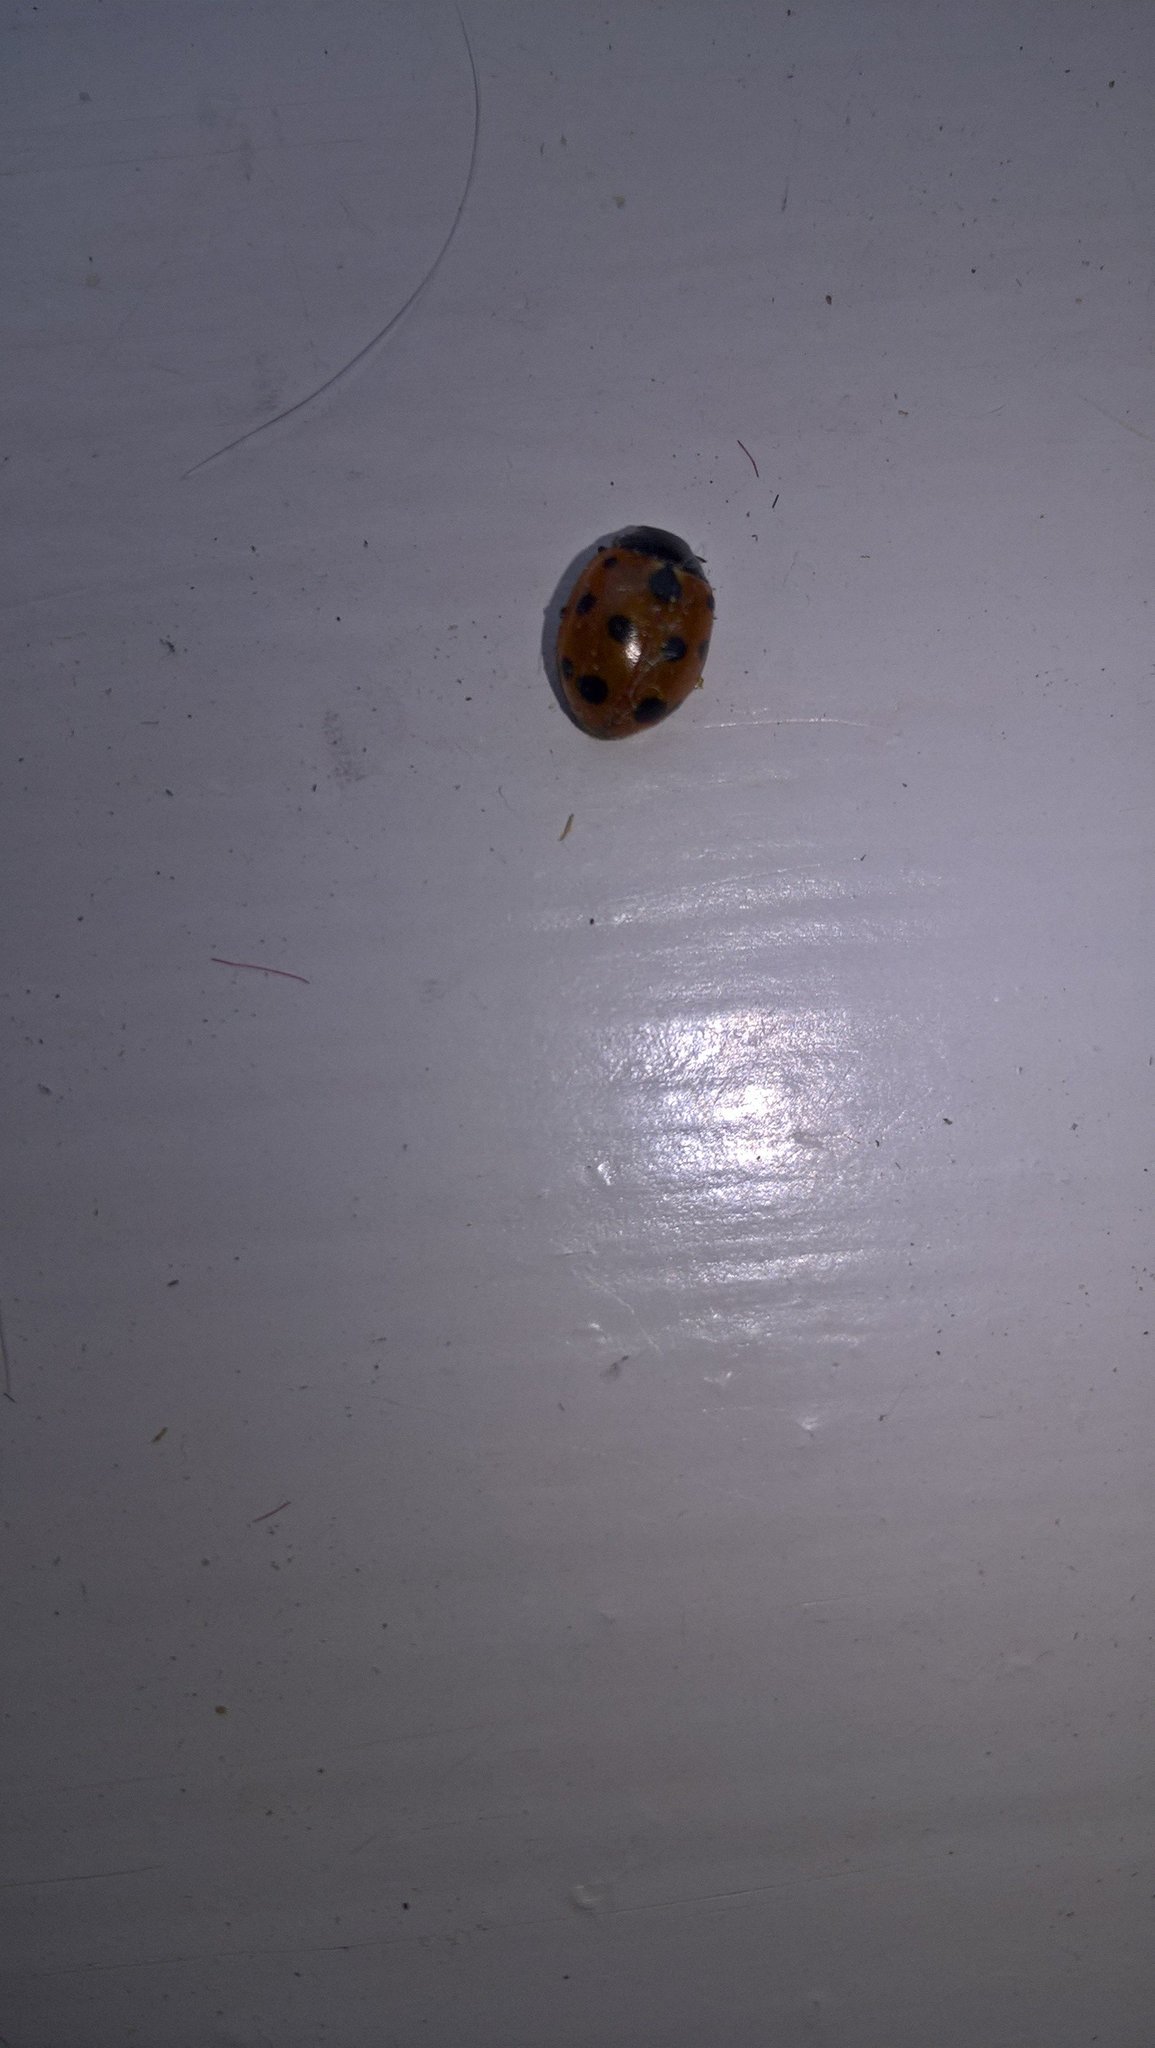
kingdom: Animalia
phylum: Arthropoda
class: Insecta
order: Coleoptera
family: Coccinellidae
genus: Coccinella
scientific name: Coccinella undecimpunctata
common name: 11-spot ladybird
